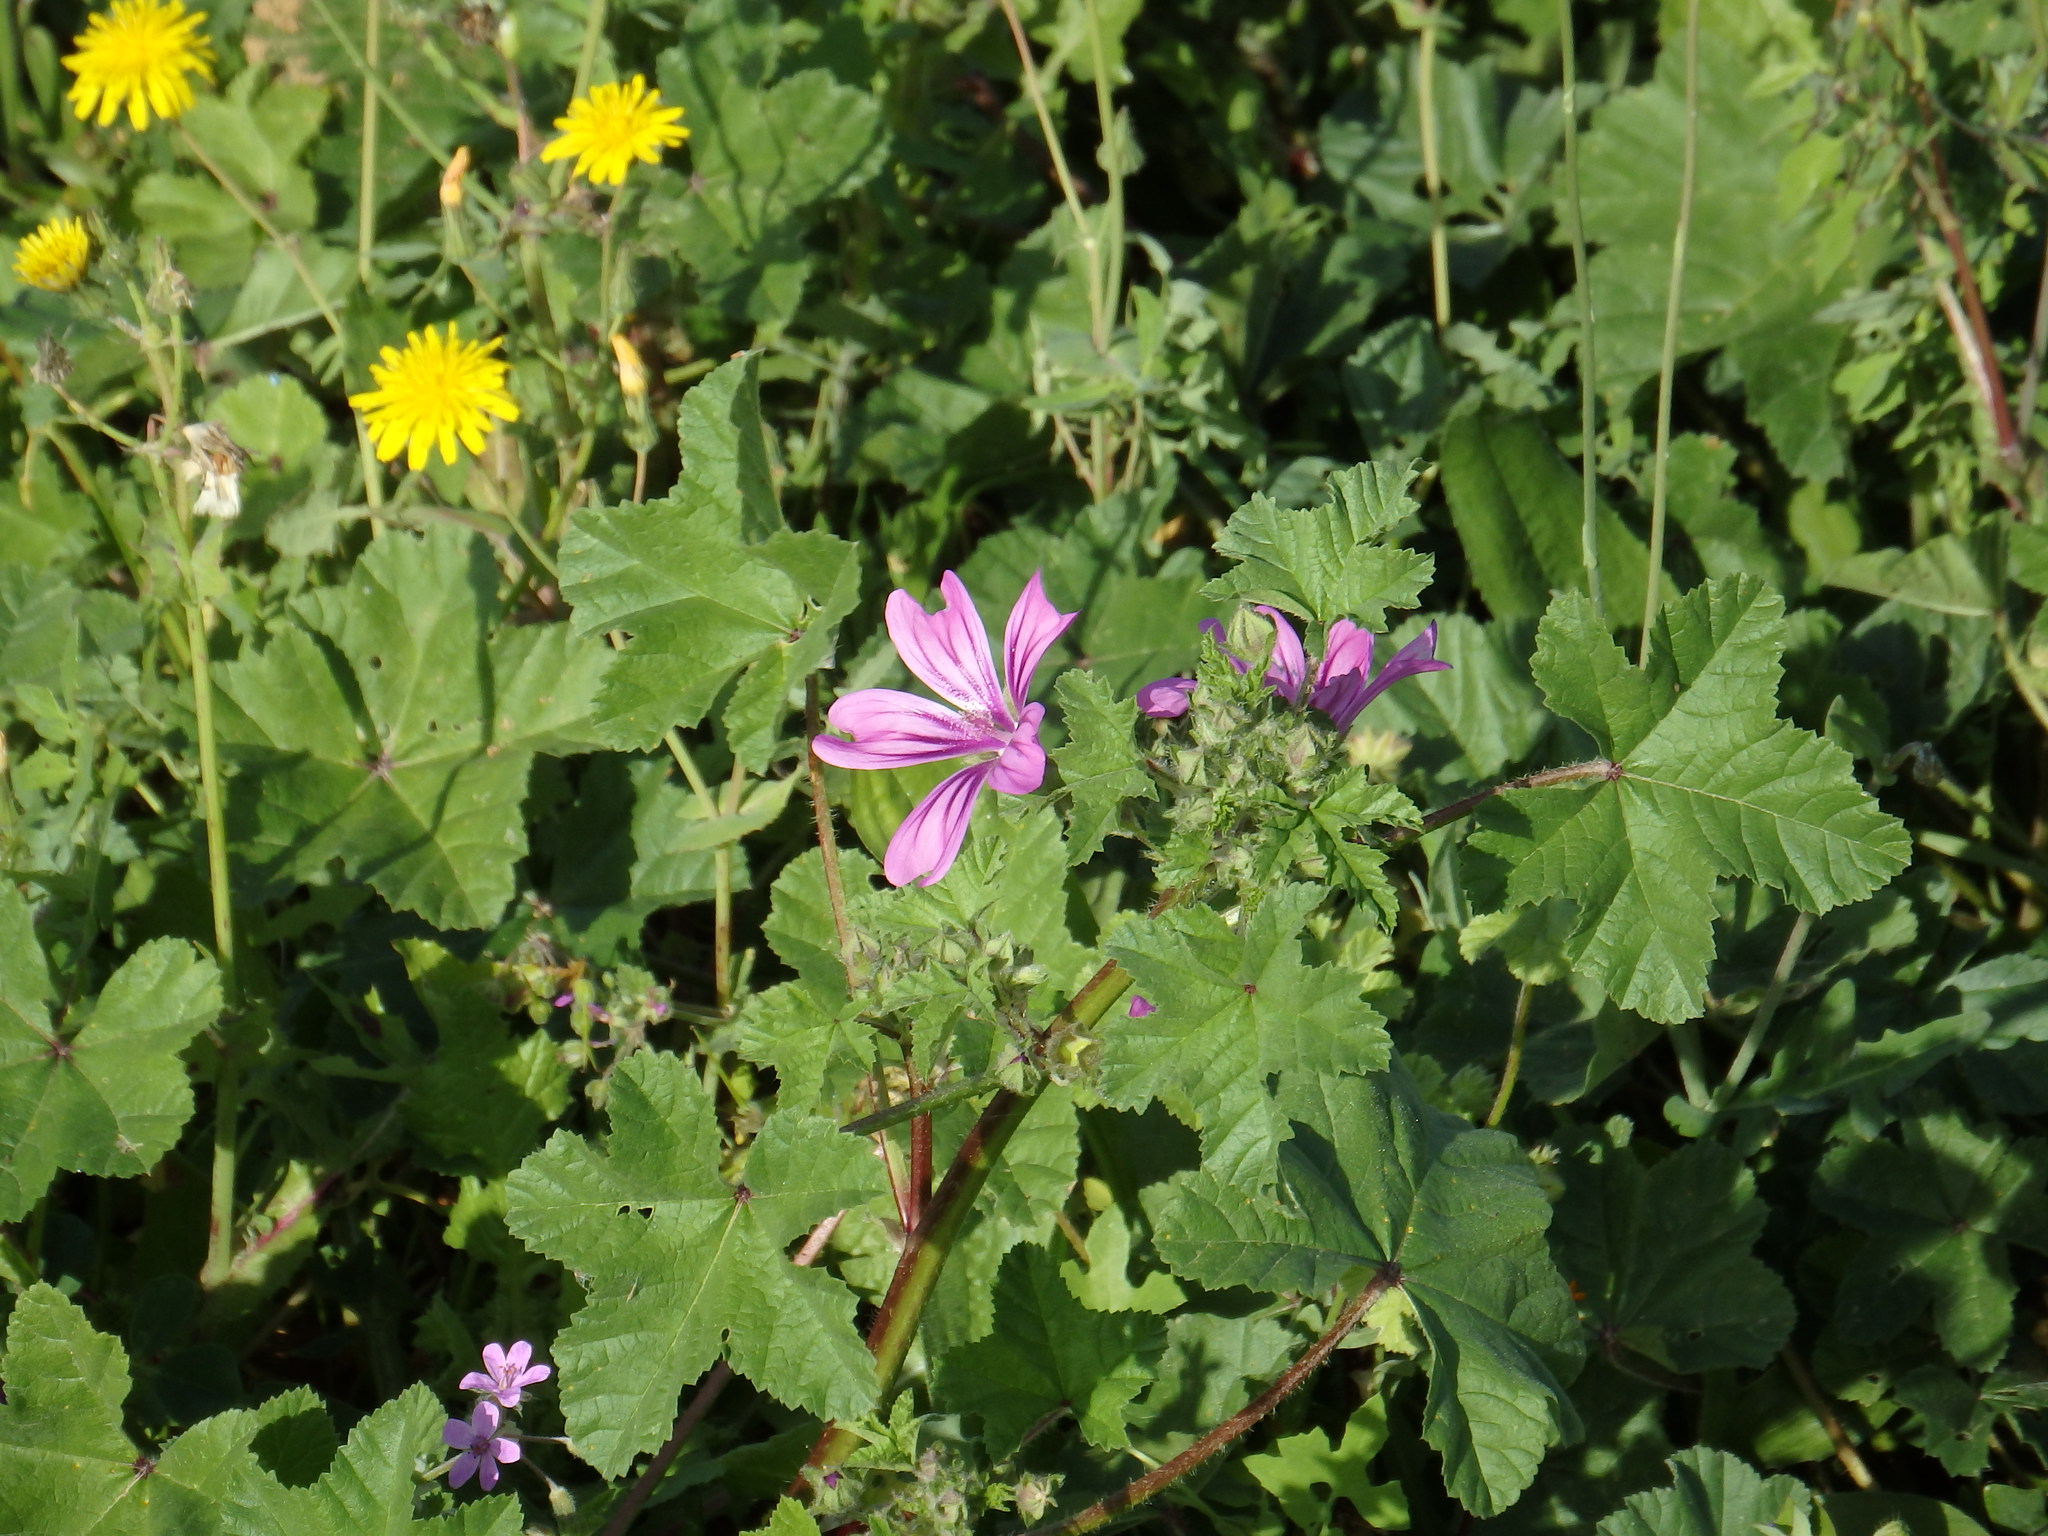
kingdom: Plantae
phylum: Tracheophyta
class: Magnoliopsida
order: Malvales
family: Malvaceae
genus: Malva
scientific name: Malva sylvestris
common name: Common mallow
